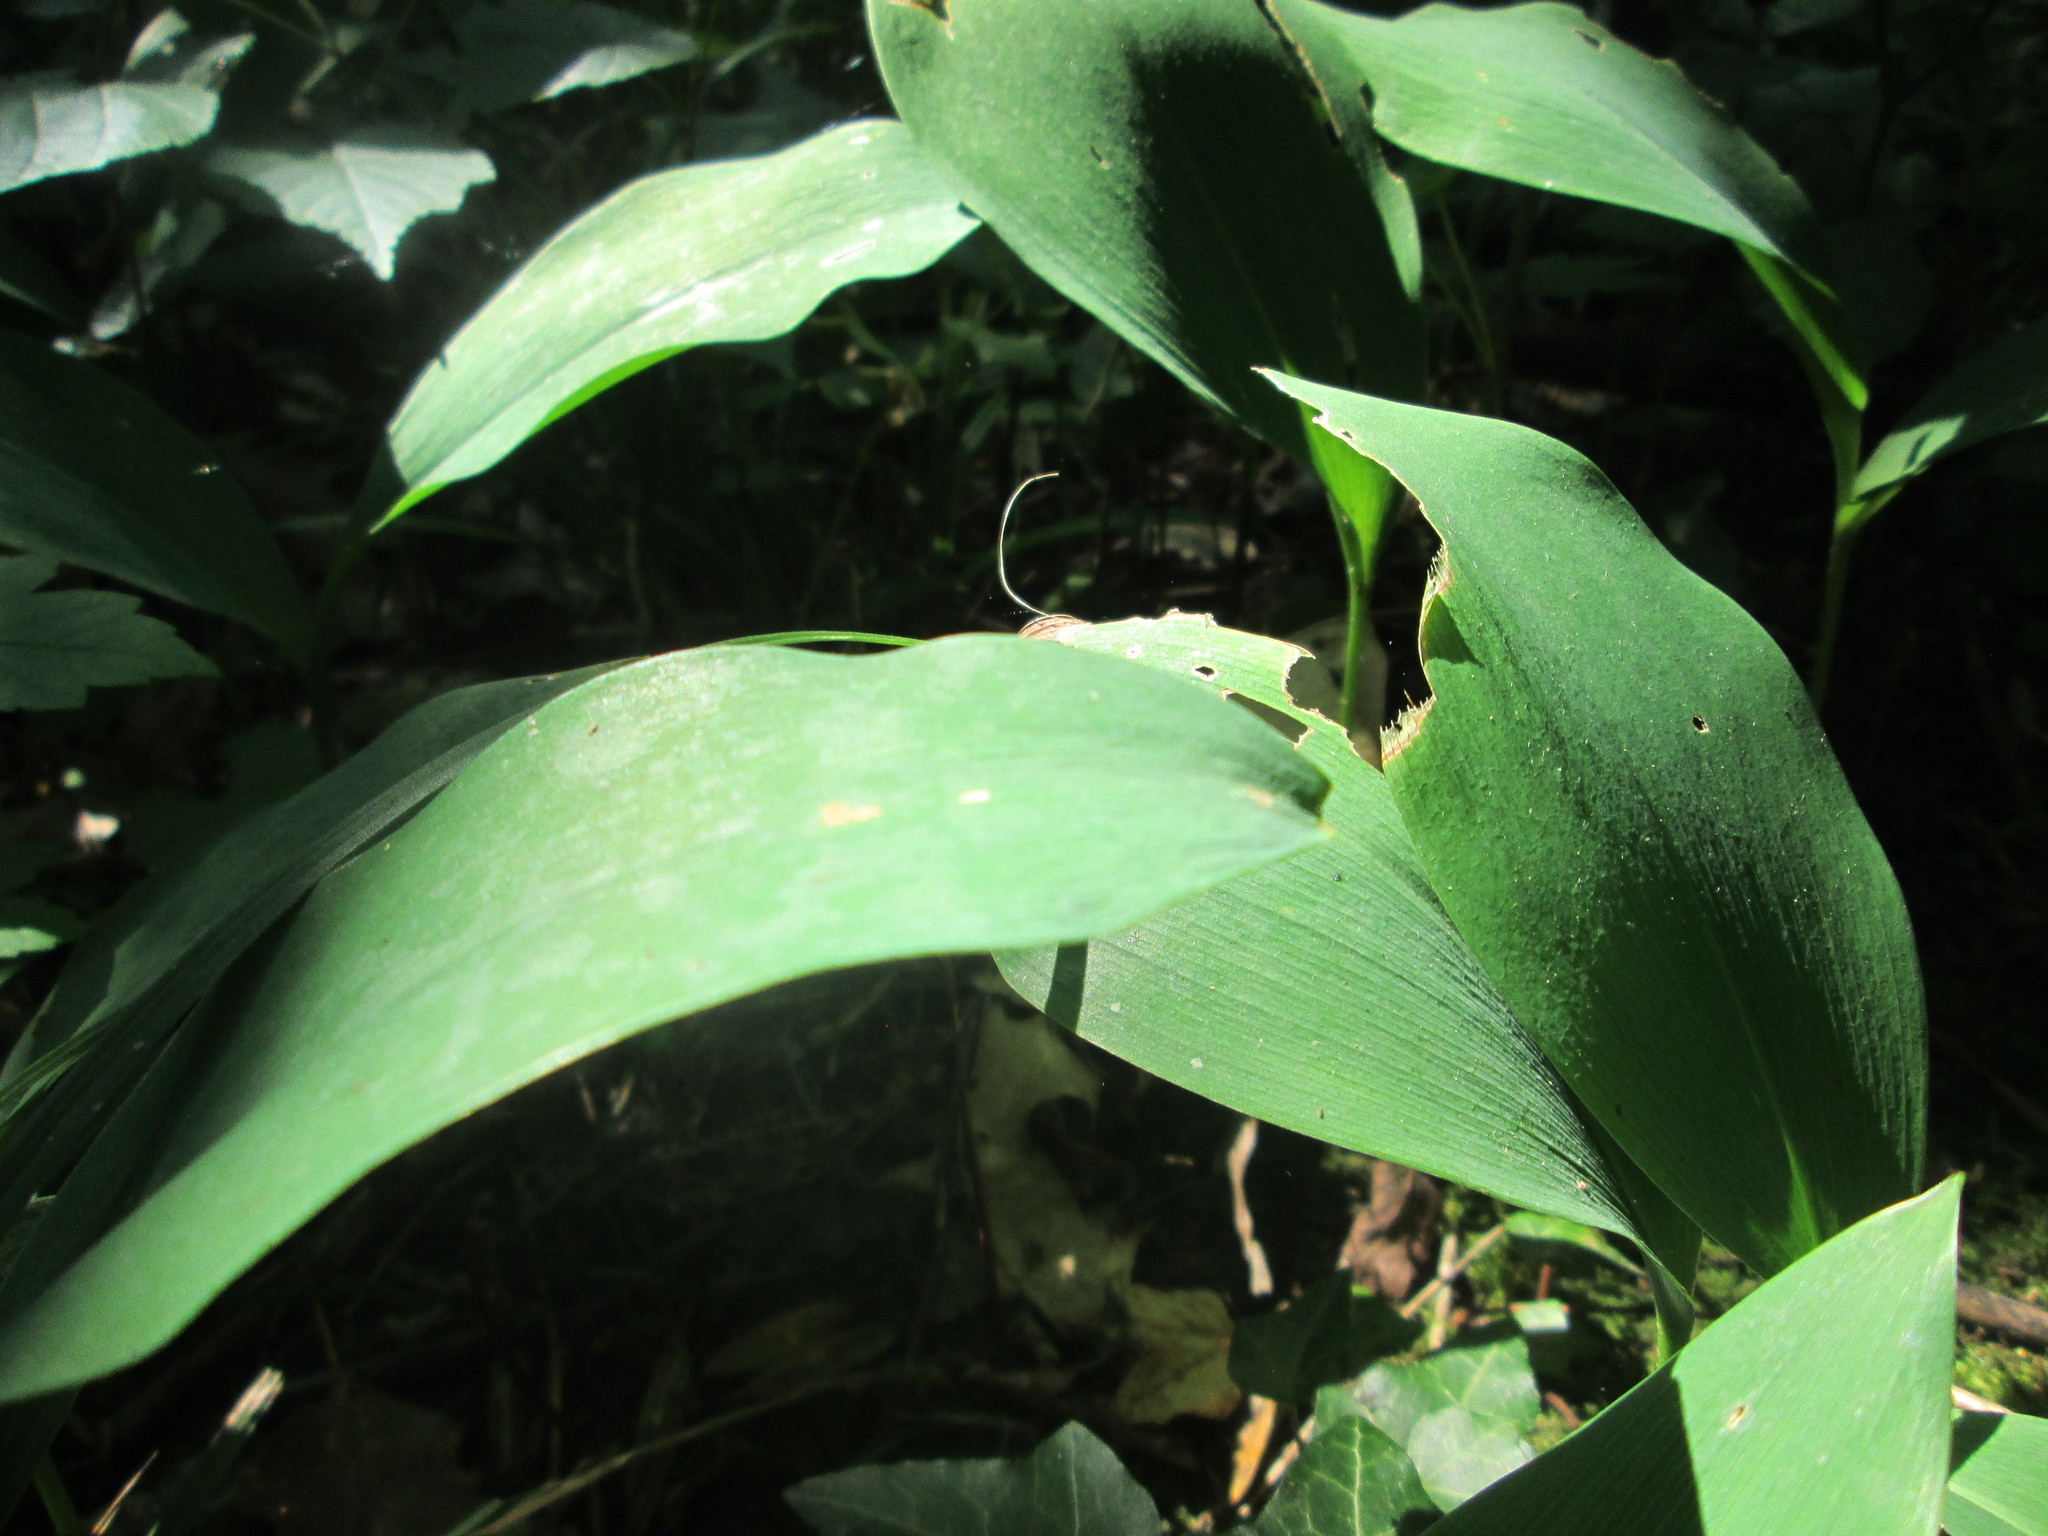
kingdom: Plantae
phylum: Tracheophyta
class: Liliopsida
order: Asparagales
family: Asparagaceae
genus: Convallaria
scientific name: Convallaria majalis
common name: Lily-of-the-valley
